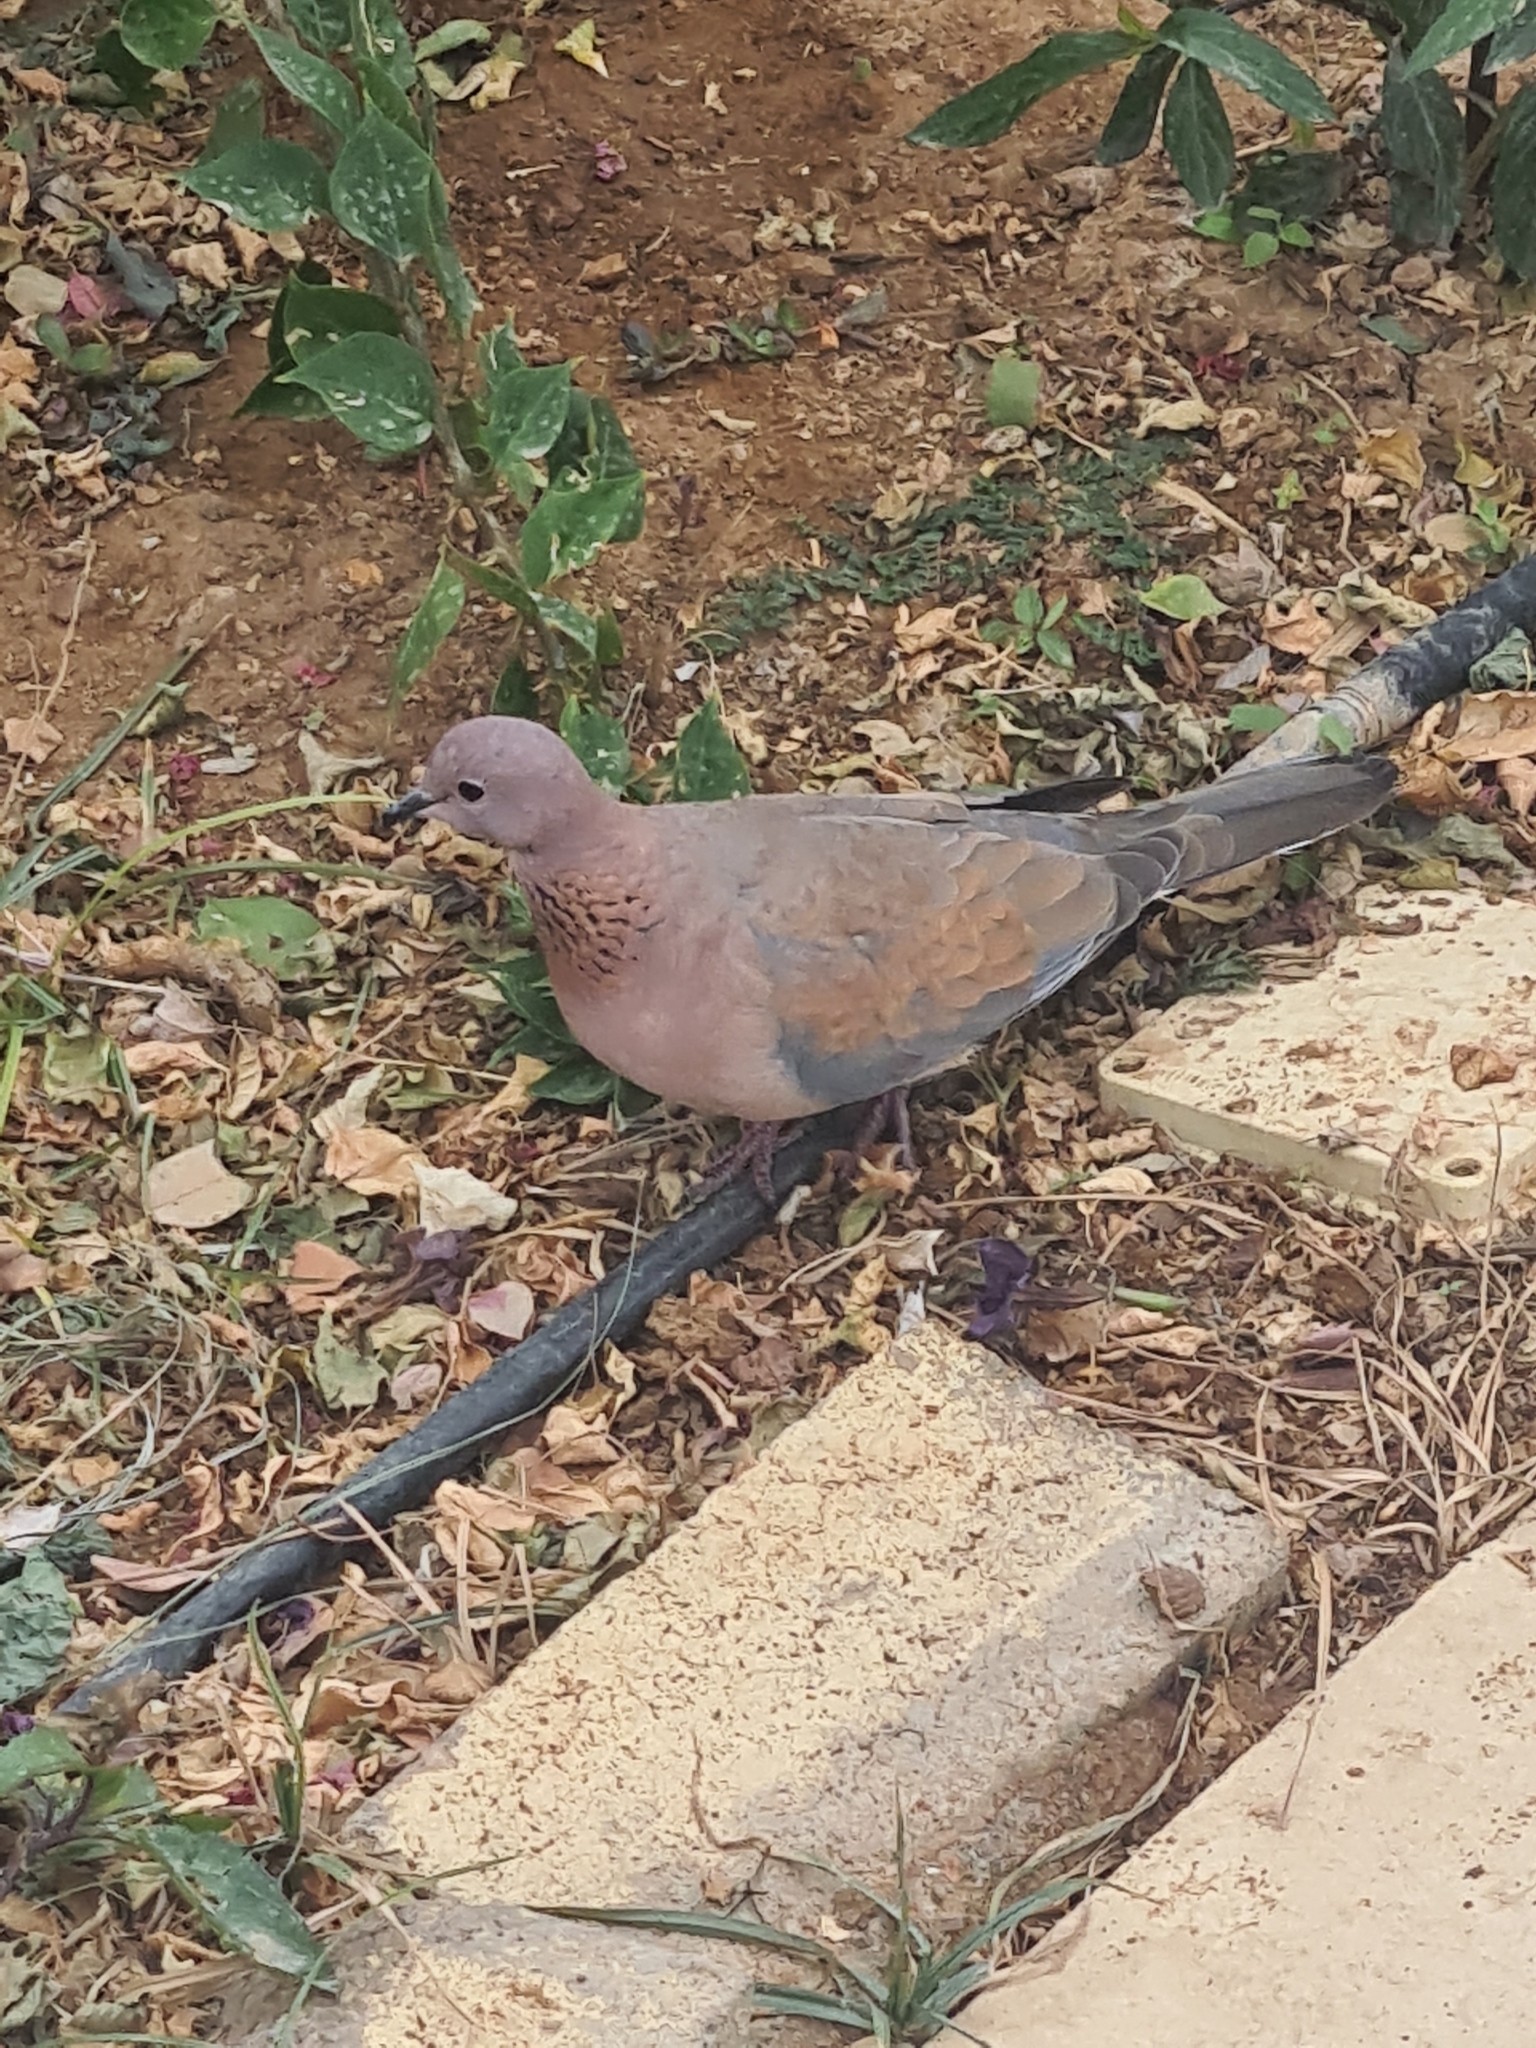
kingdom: Animalia
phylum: Chordata
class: Aves
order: Columbiformes
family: Columbidae
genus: Spilopelia
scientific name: Spilopelia senegalensis
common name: Laughing dove
